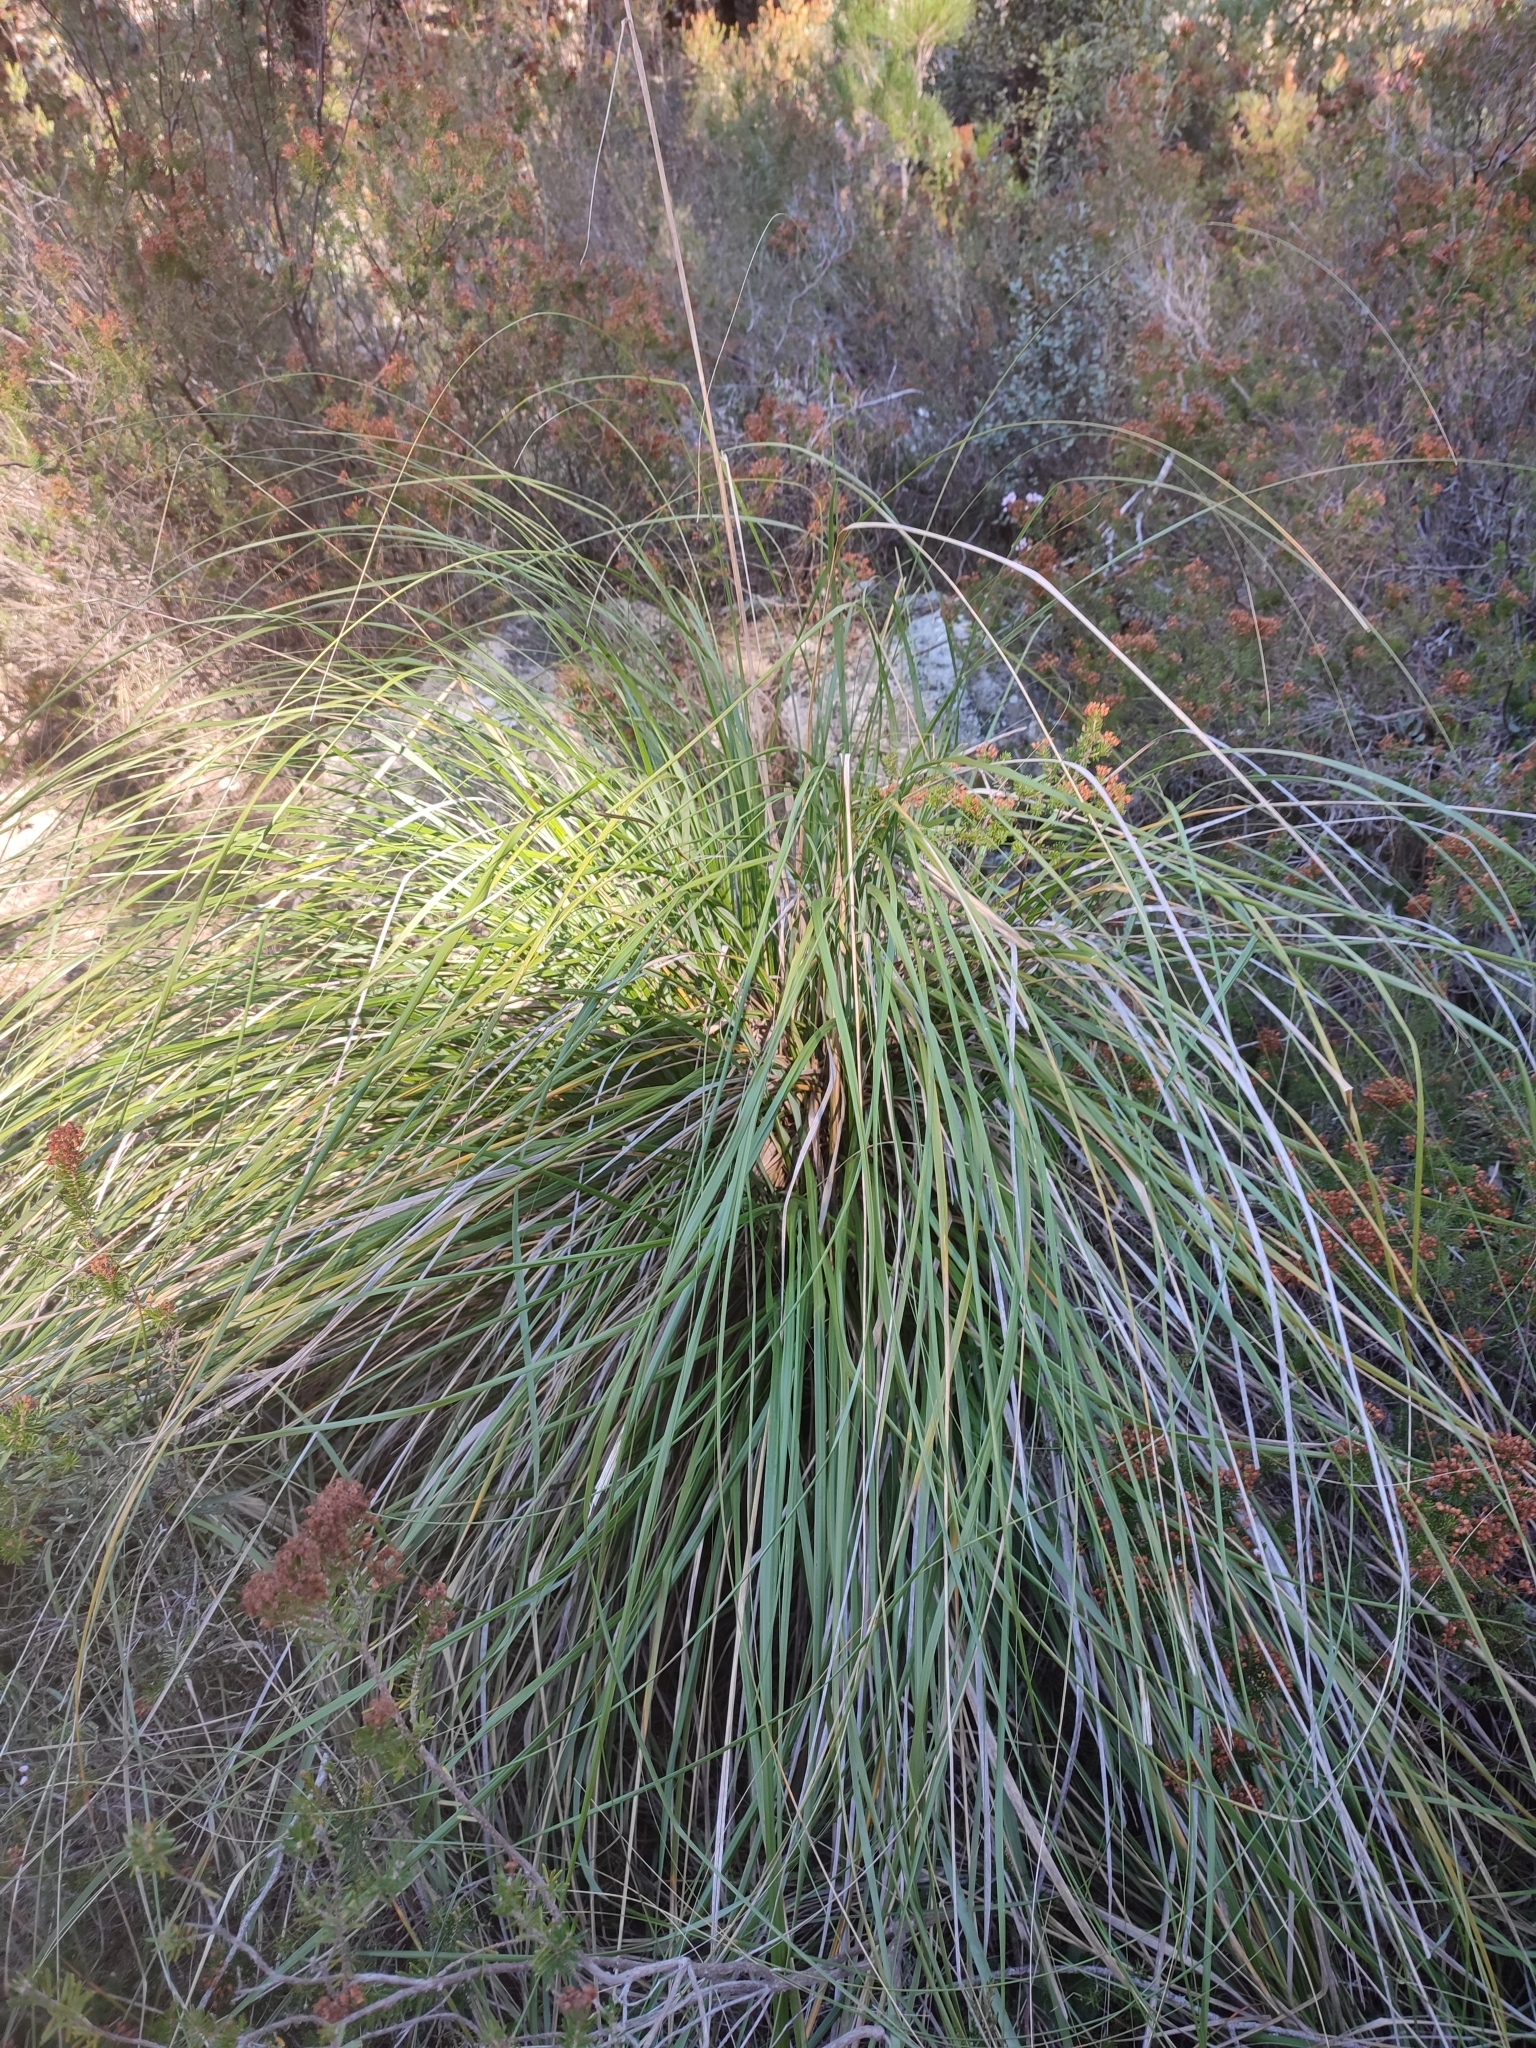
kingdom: Plantae
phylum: Tracheophyta
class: Liliopsida
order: Poales
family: Poaceae
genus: Ampelodesmos
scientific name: Ampelodesmos mauritanicus
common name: Mauritanian grass
